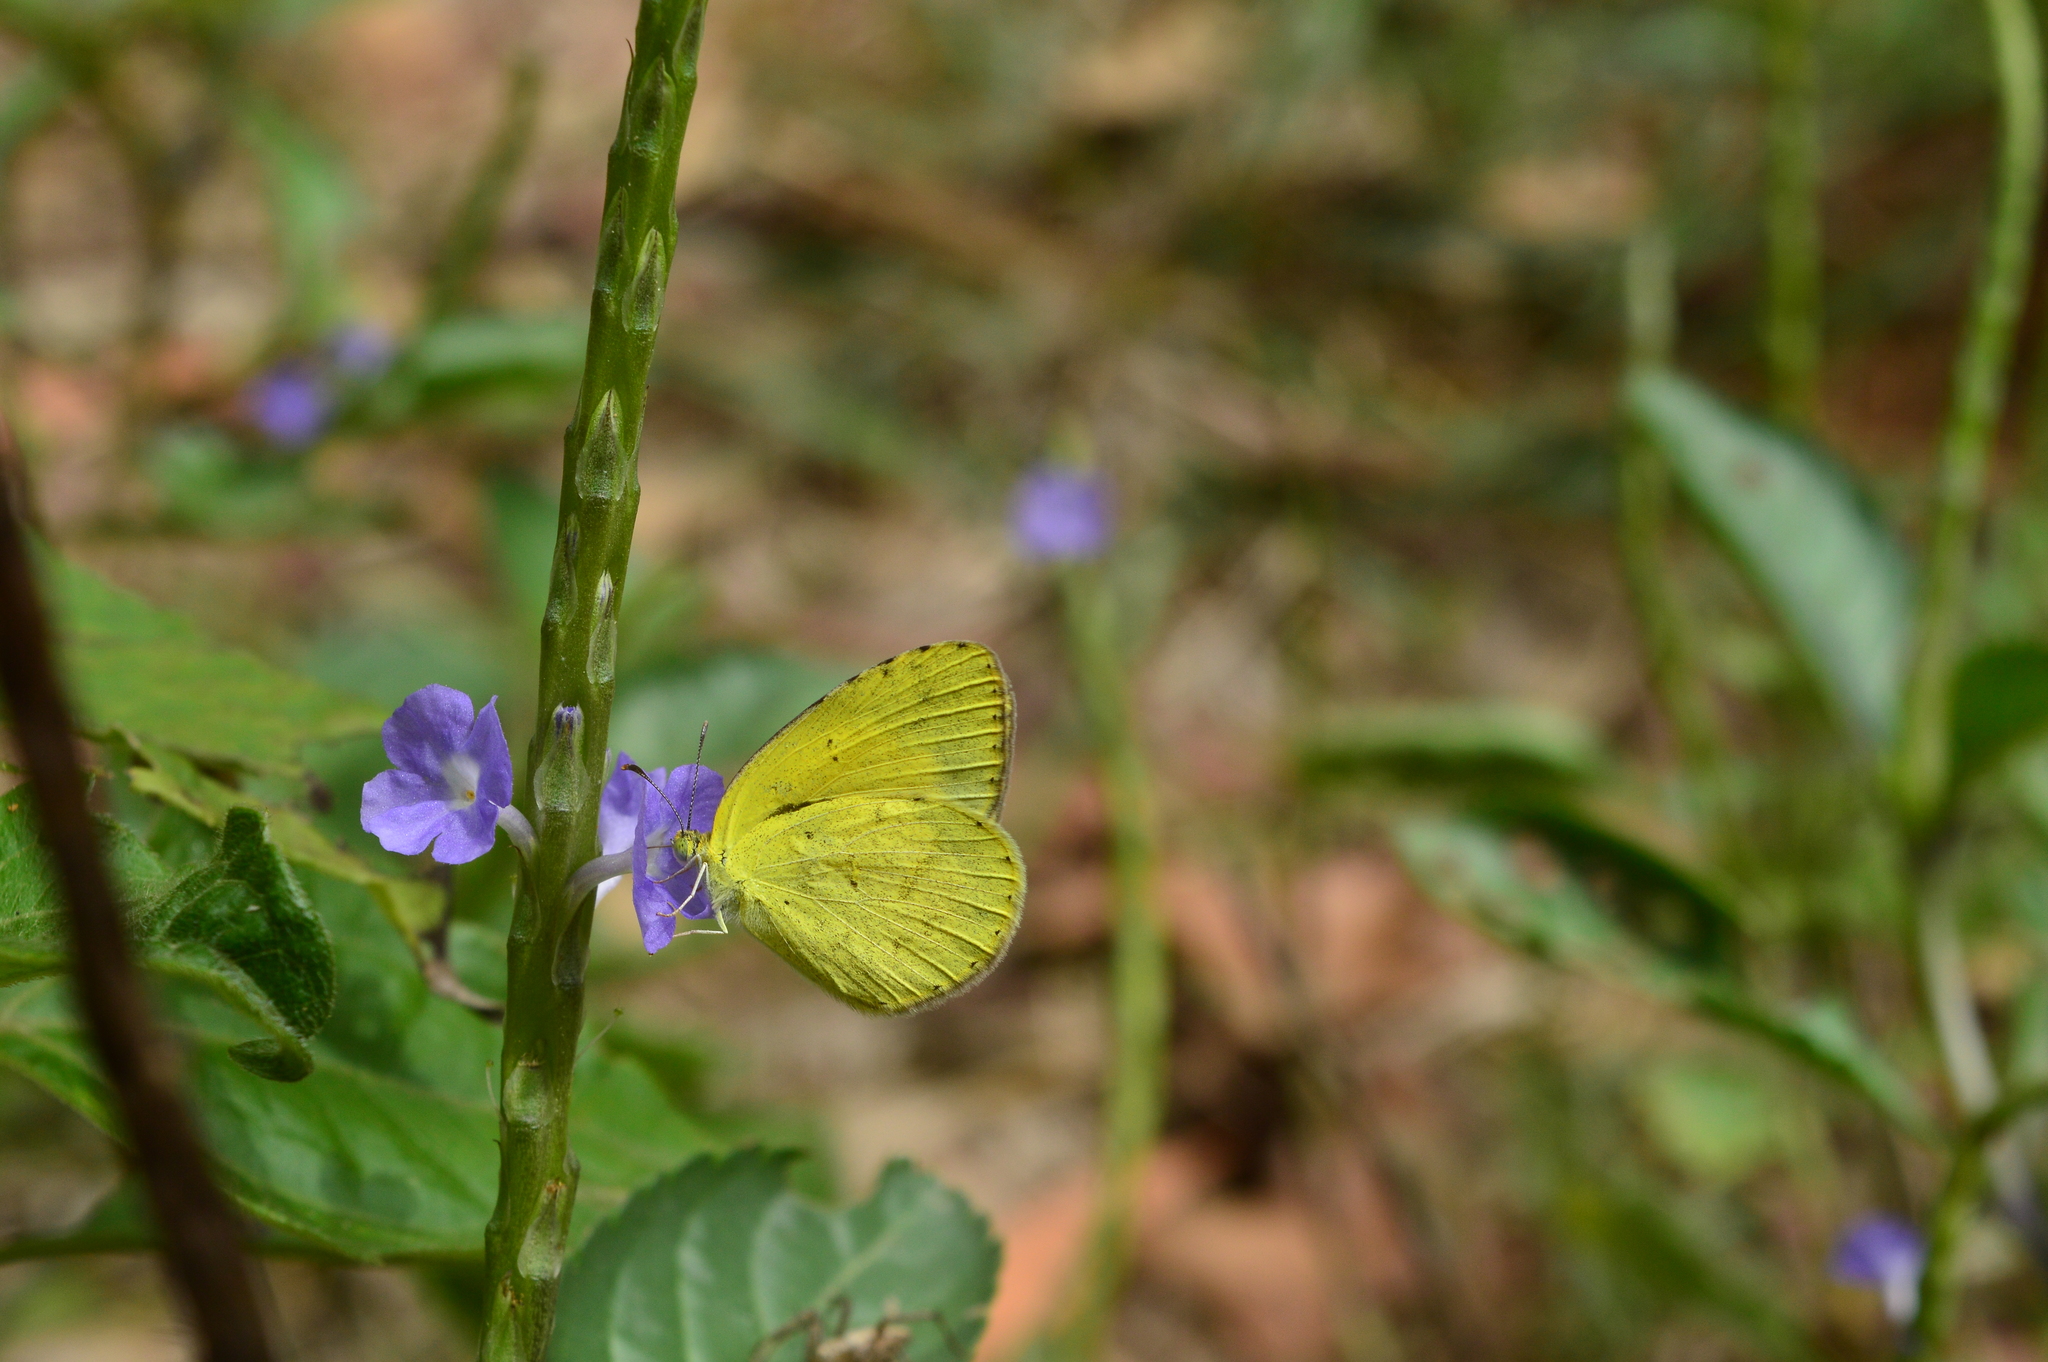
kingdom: Animalia
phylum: Arthropoda
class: Insecta
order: Lepidoptera
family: Pieridae
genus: Eurema
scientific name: Eurema brigitta
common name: Small grass yellow
